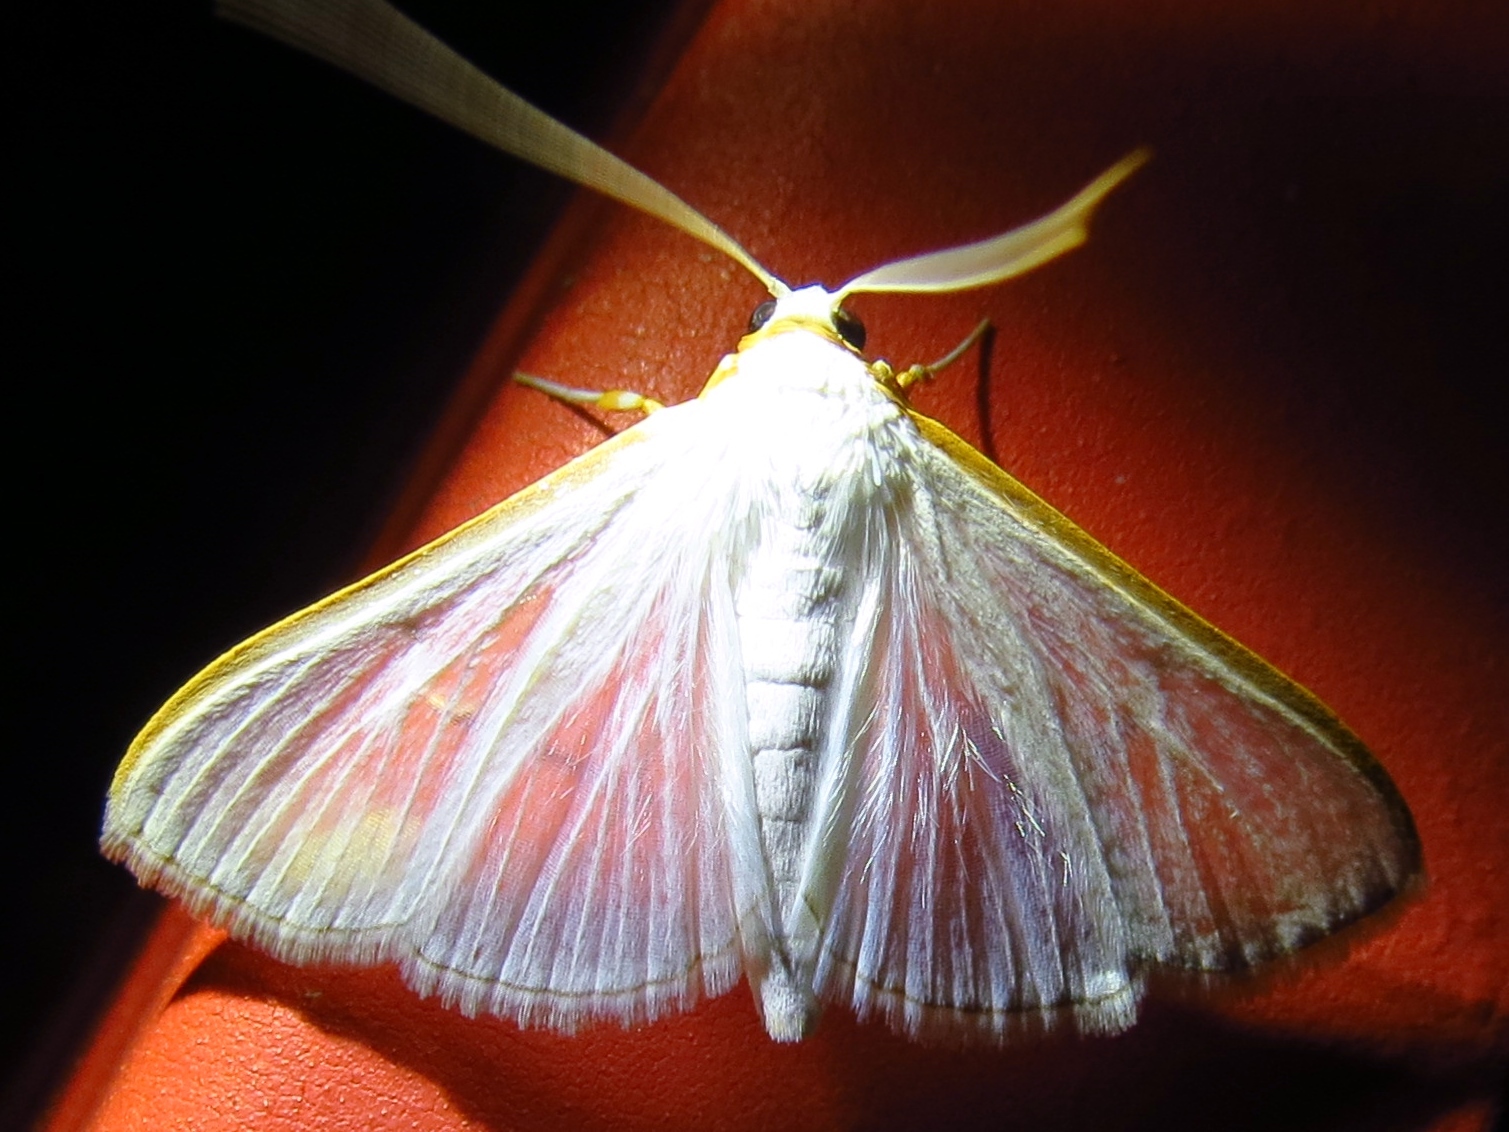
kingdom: Animalia
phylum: Arthropoda
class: Insecta
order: Lepidoptera
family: Crambidae
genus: Diaphania
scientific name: Diaphania costata
